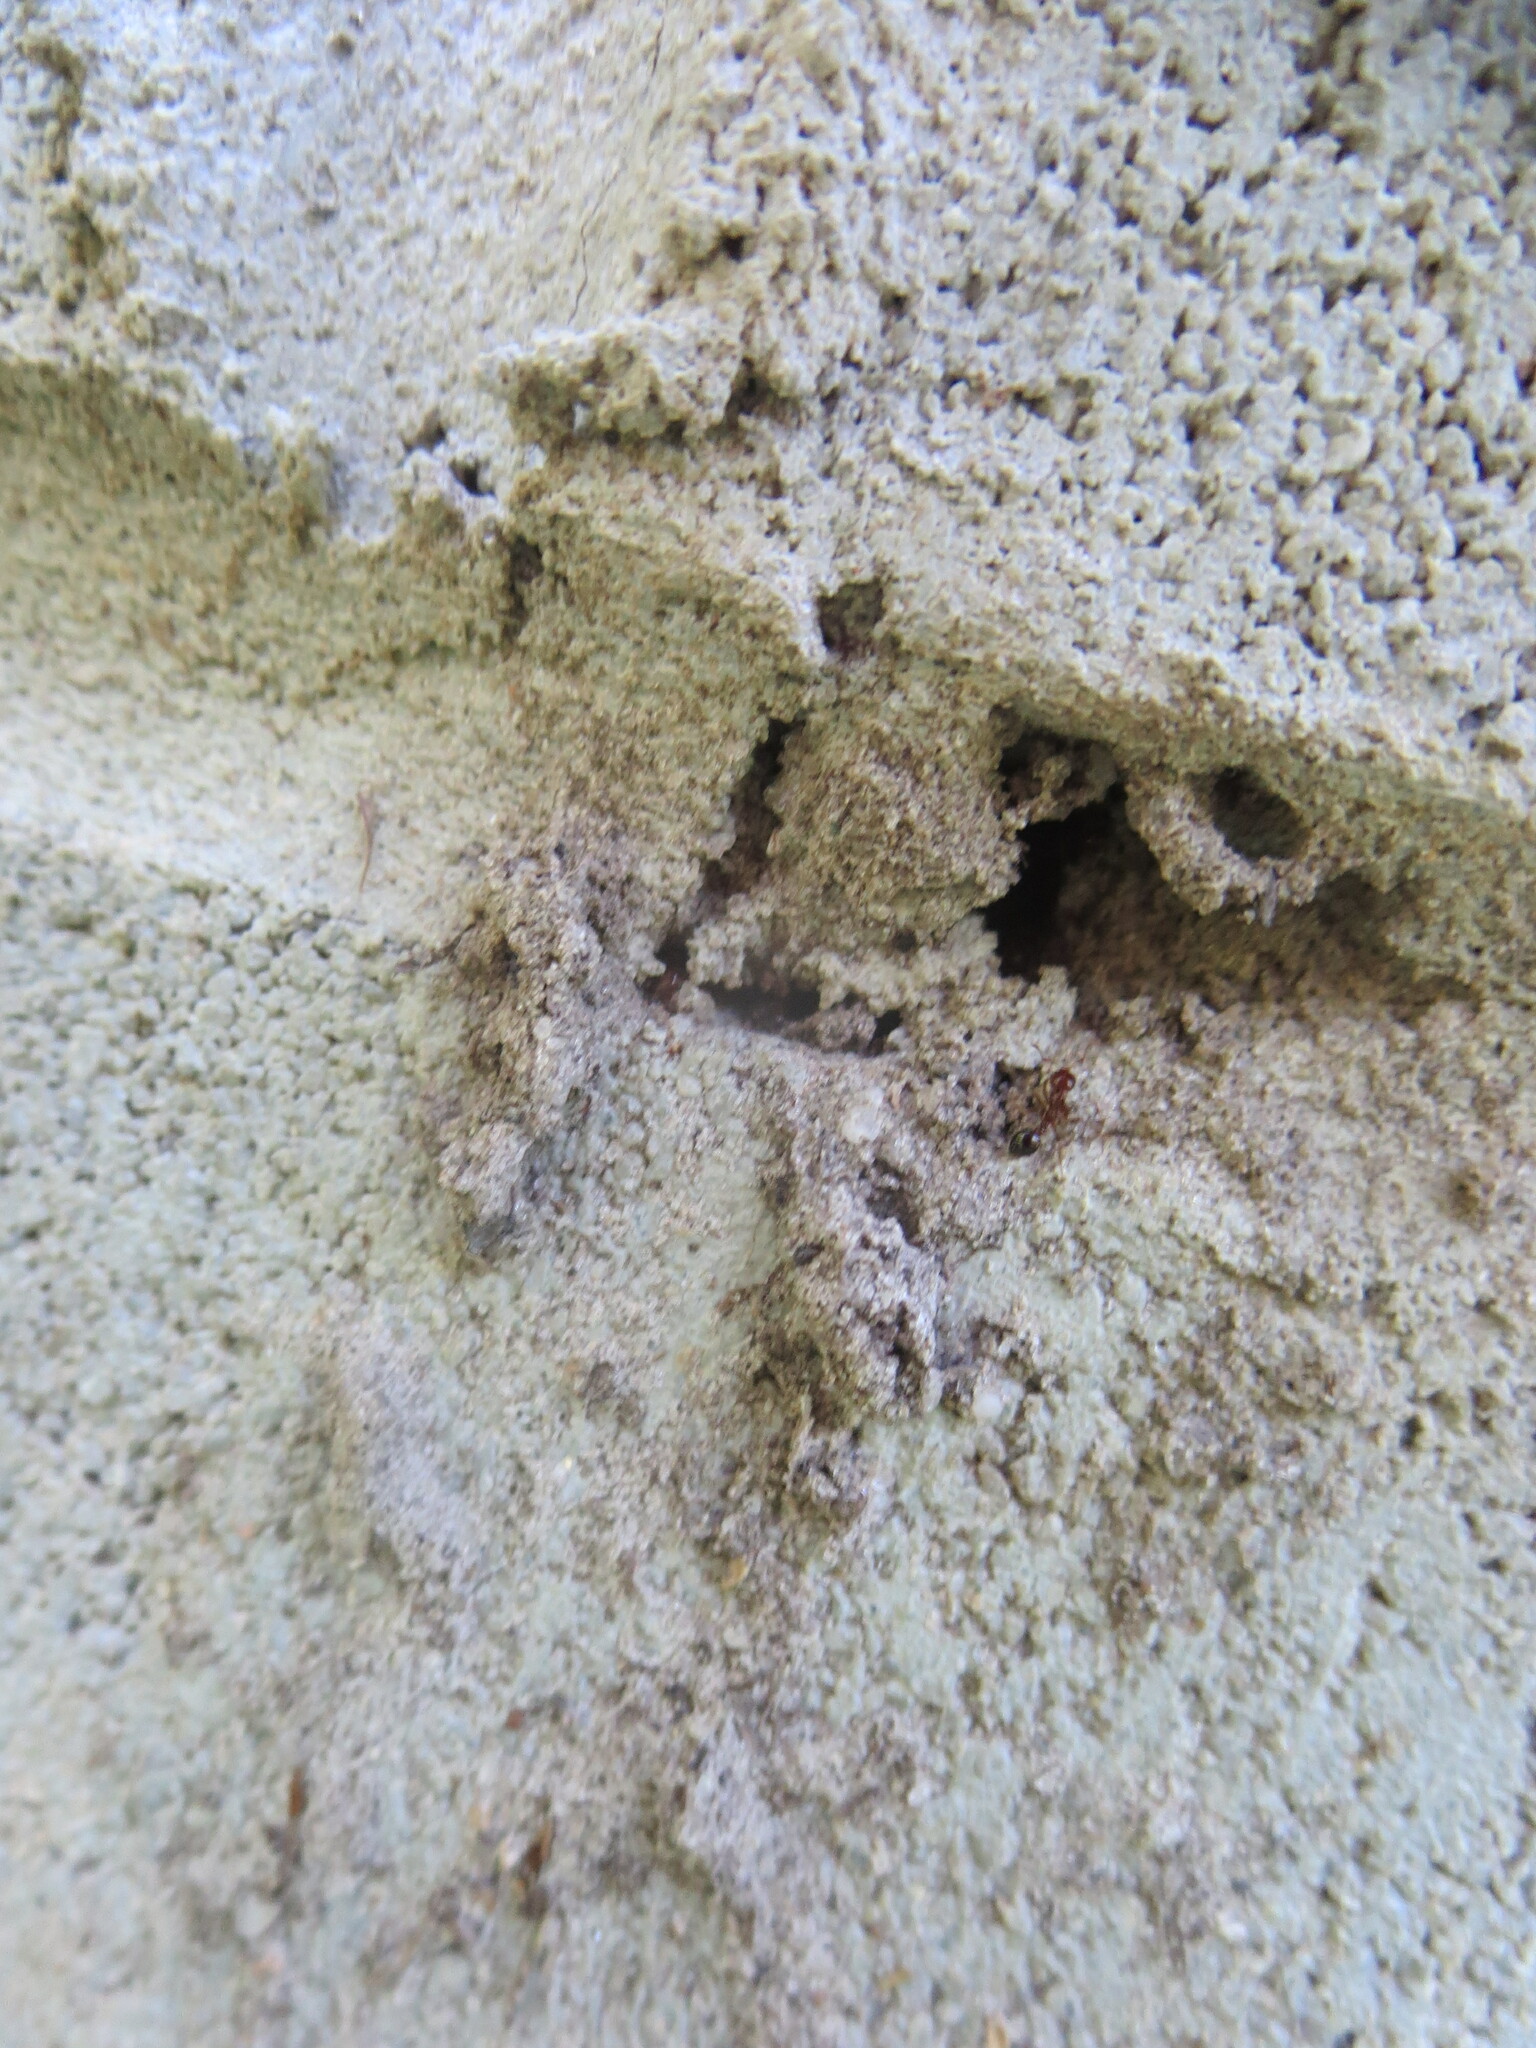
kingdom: Animalia
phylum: Arthropoda
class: Insecta
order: Hymenoptera
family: Formicidae
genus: Solenopsis
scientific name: Solenopsis invicta
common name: Red imported fire ant
